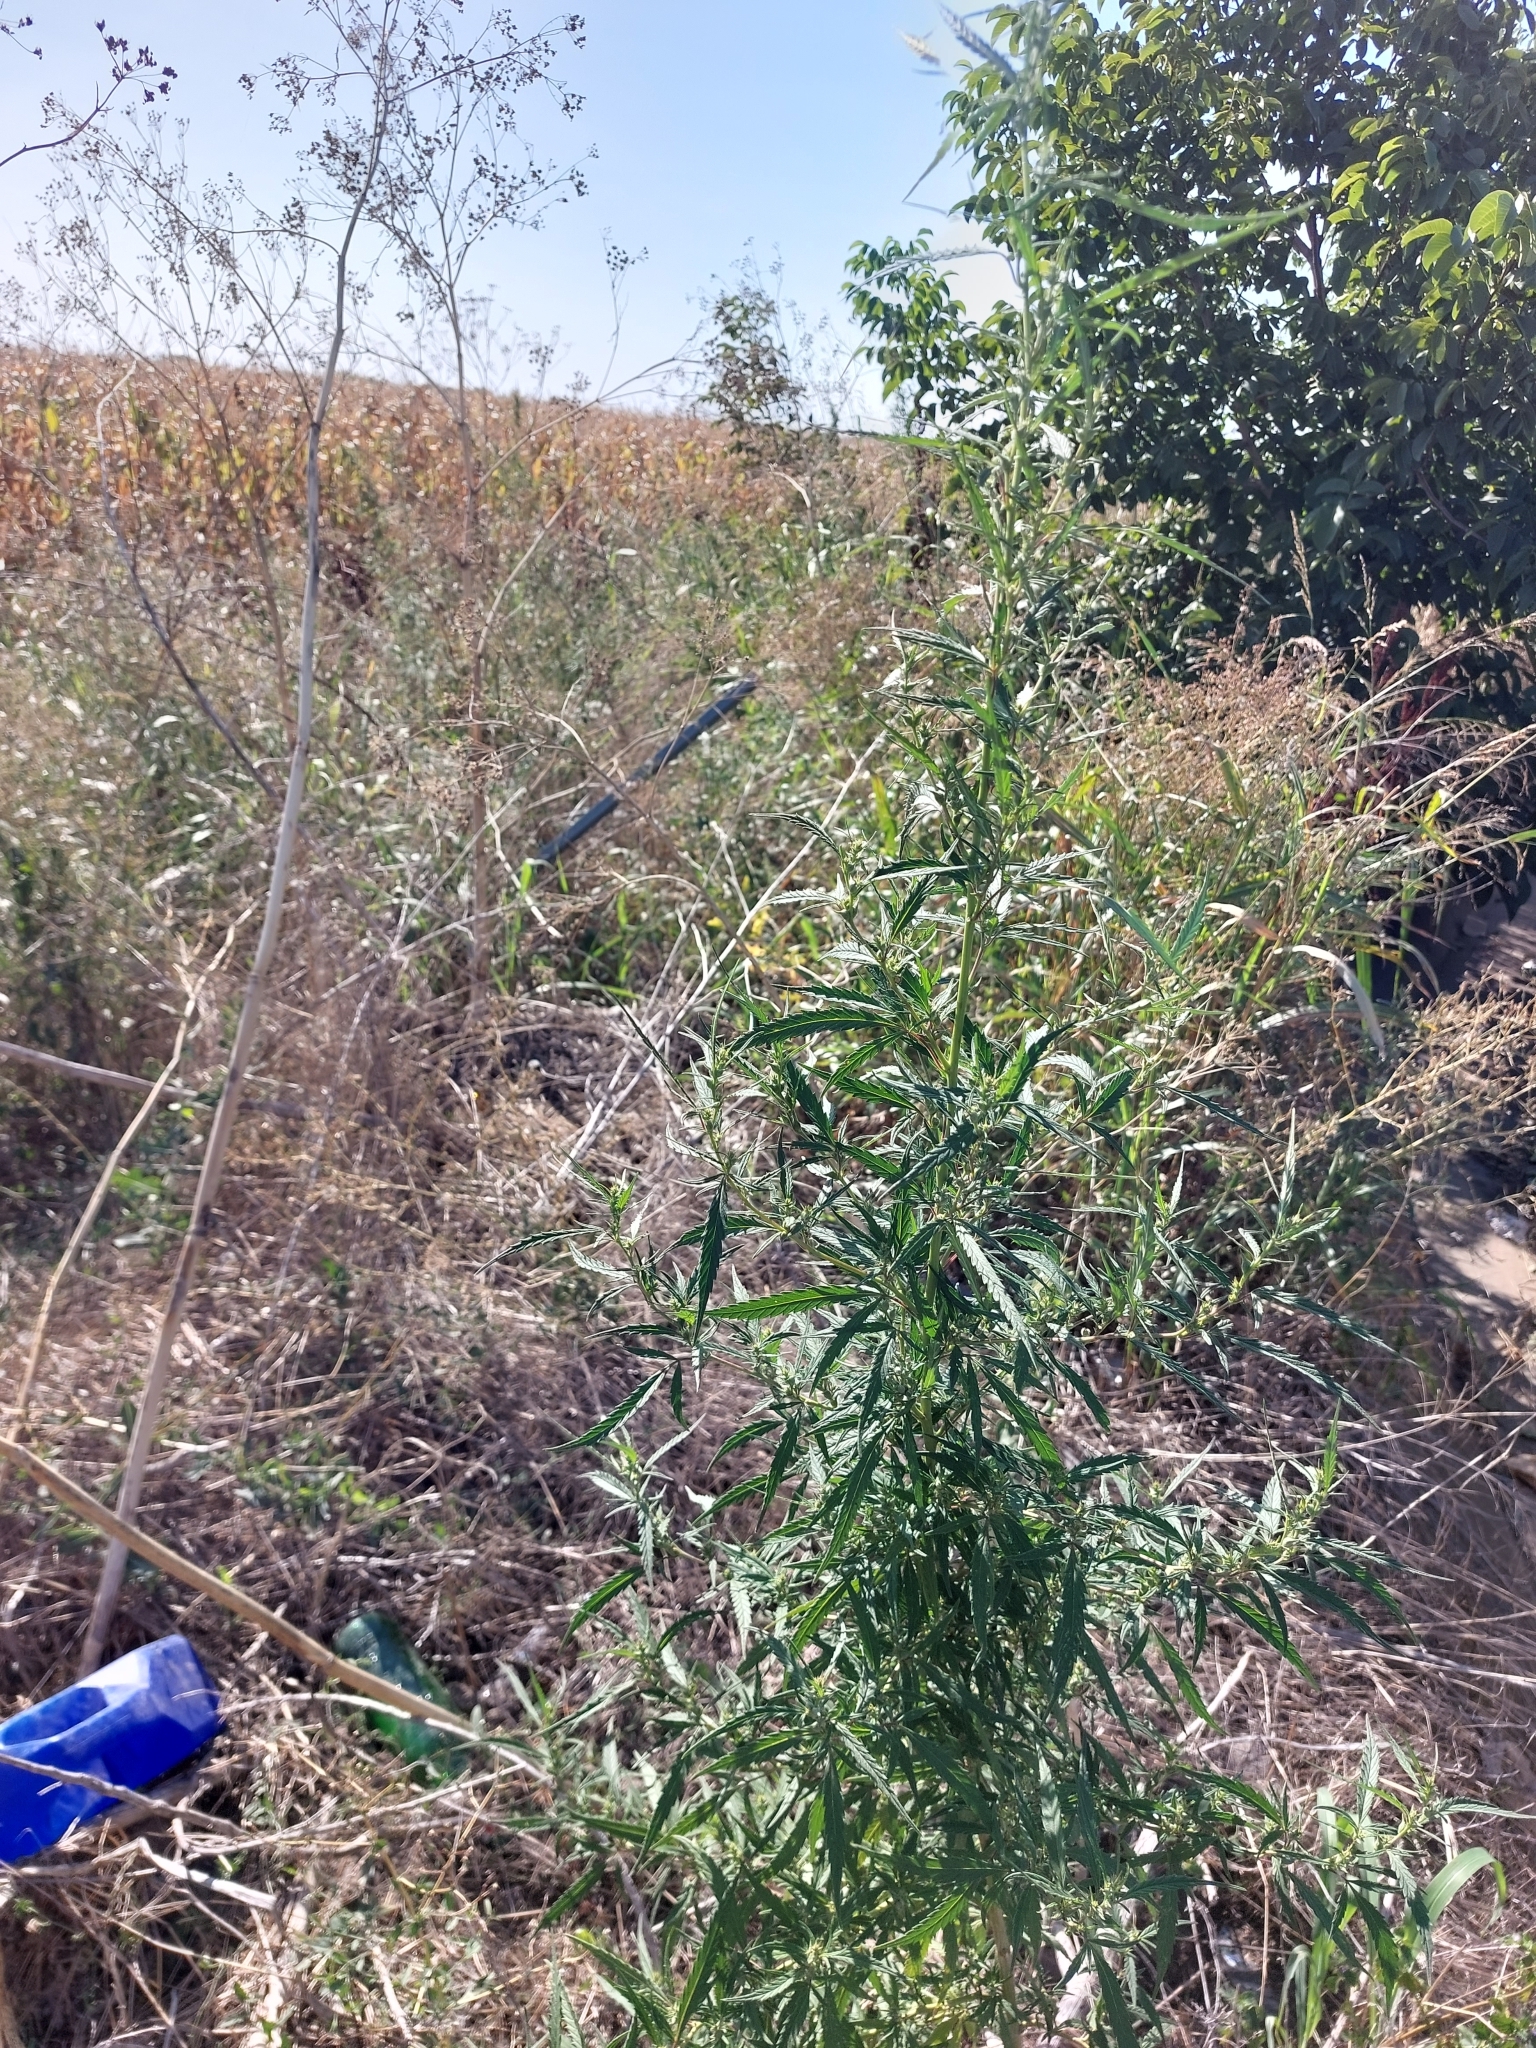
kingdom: Plantae
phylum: Tracheophyta
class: Magnoliopsida
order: Rosales
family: Cannabaceae
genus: Cannabis
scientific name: Cannabis sativa
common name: Hemp
